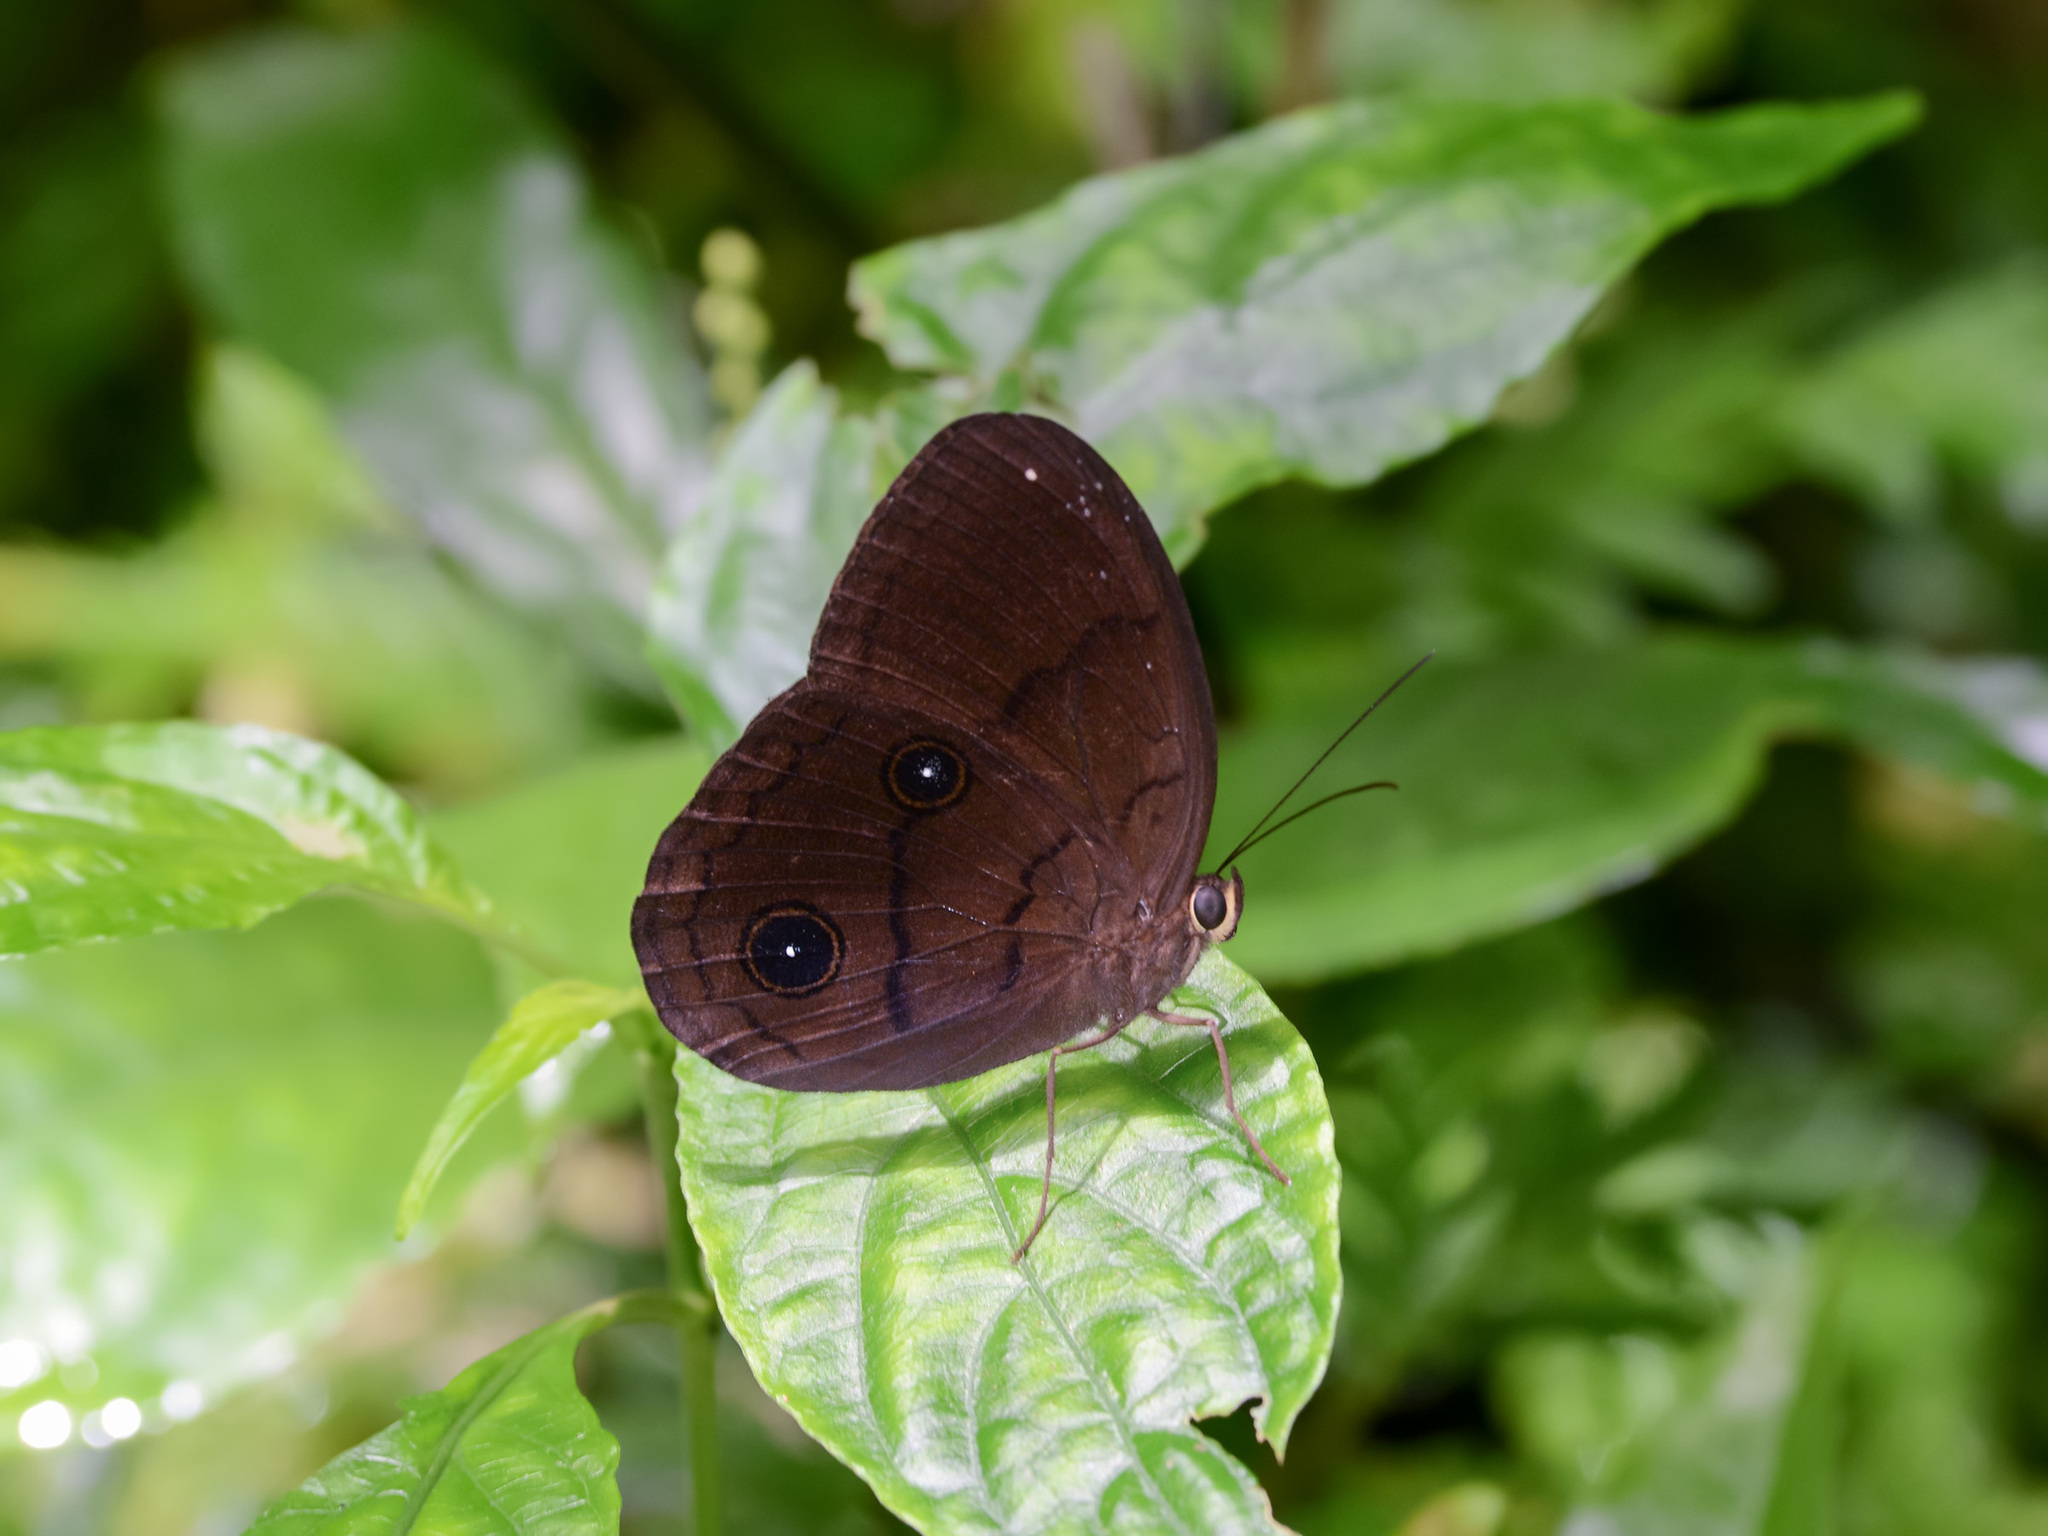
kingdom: Animalia
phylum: Arthropoda
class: Insecta
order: Lepidoptera
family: Nymphalidae
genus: Faunis
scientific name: Faunis phaon
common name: Faun butterfly
